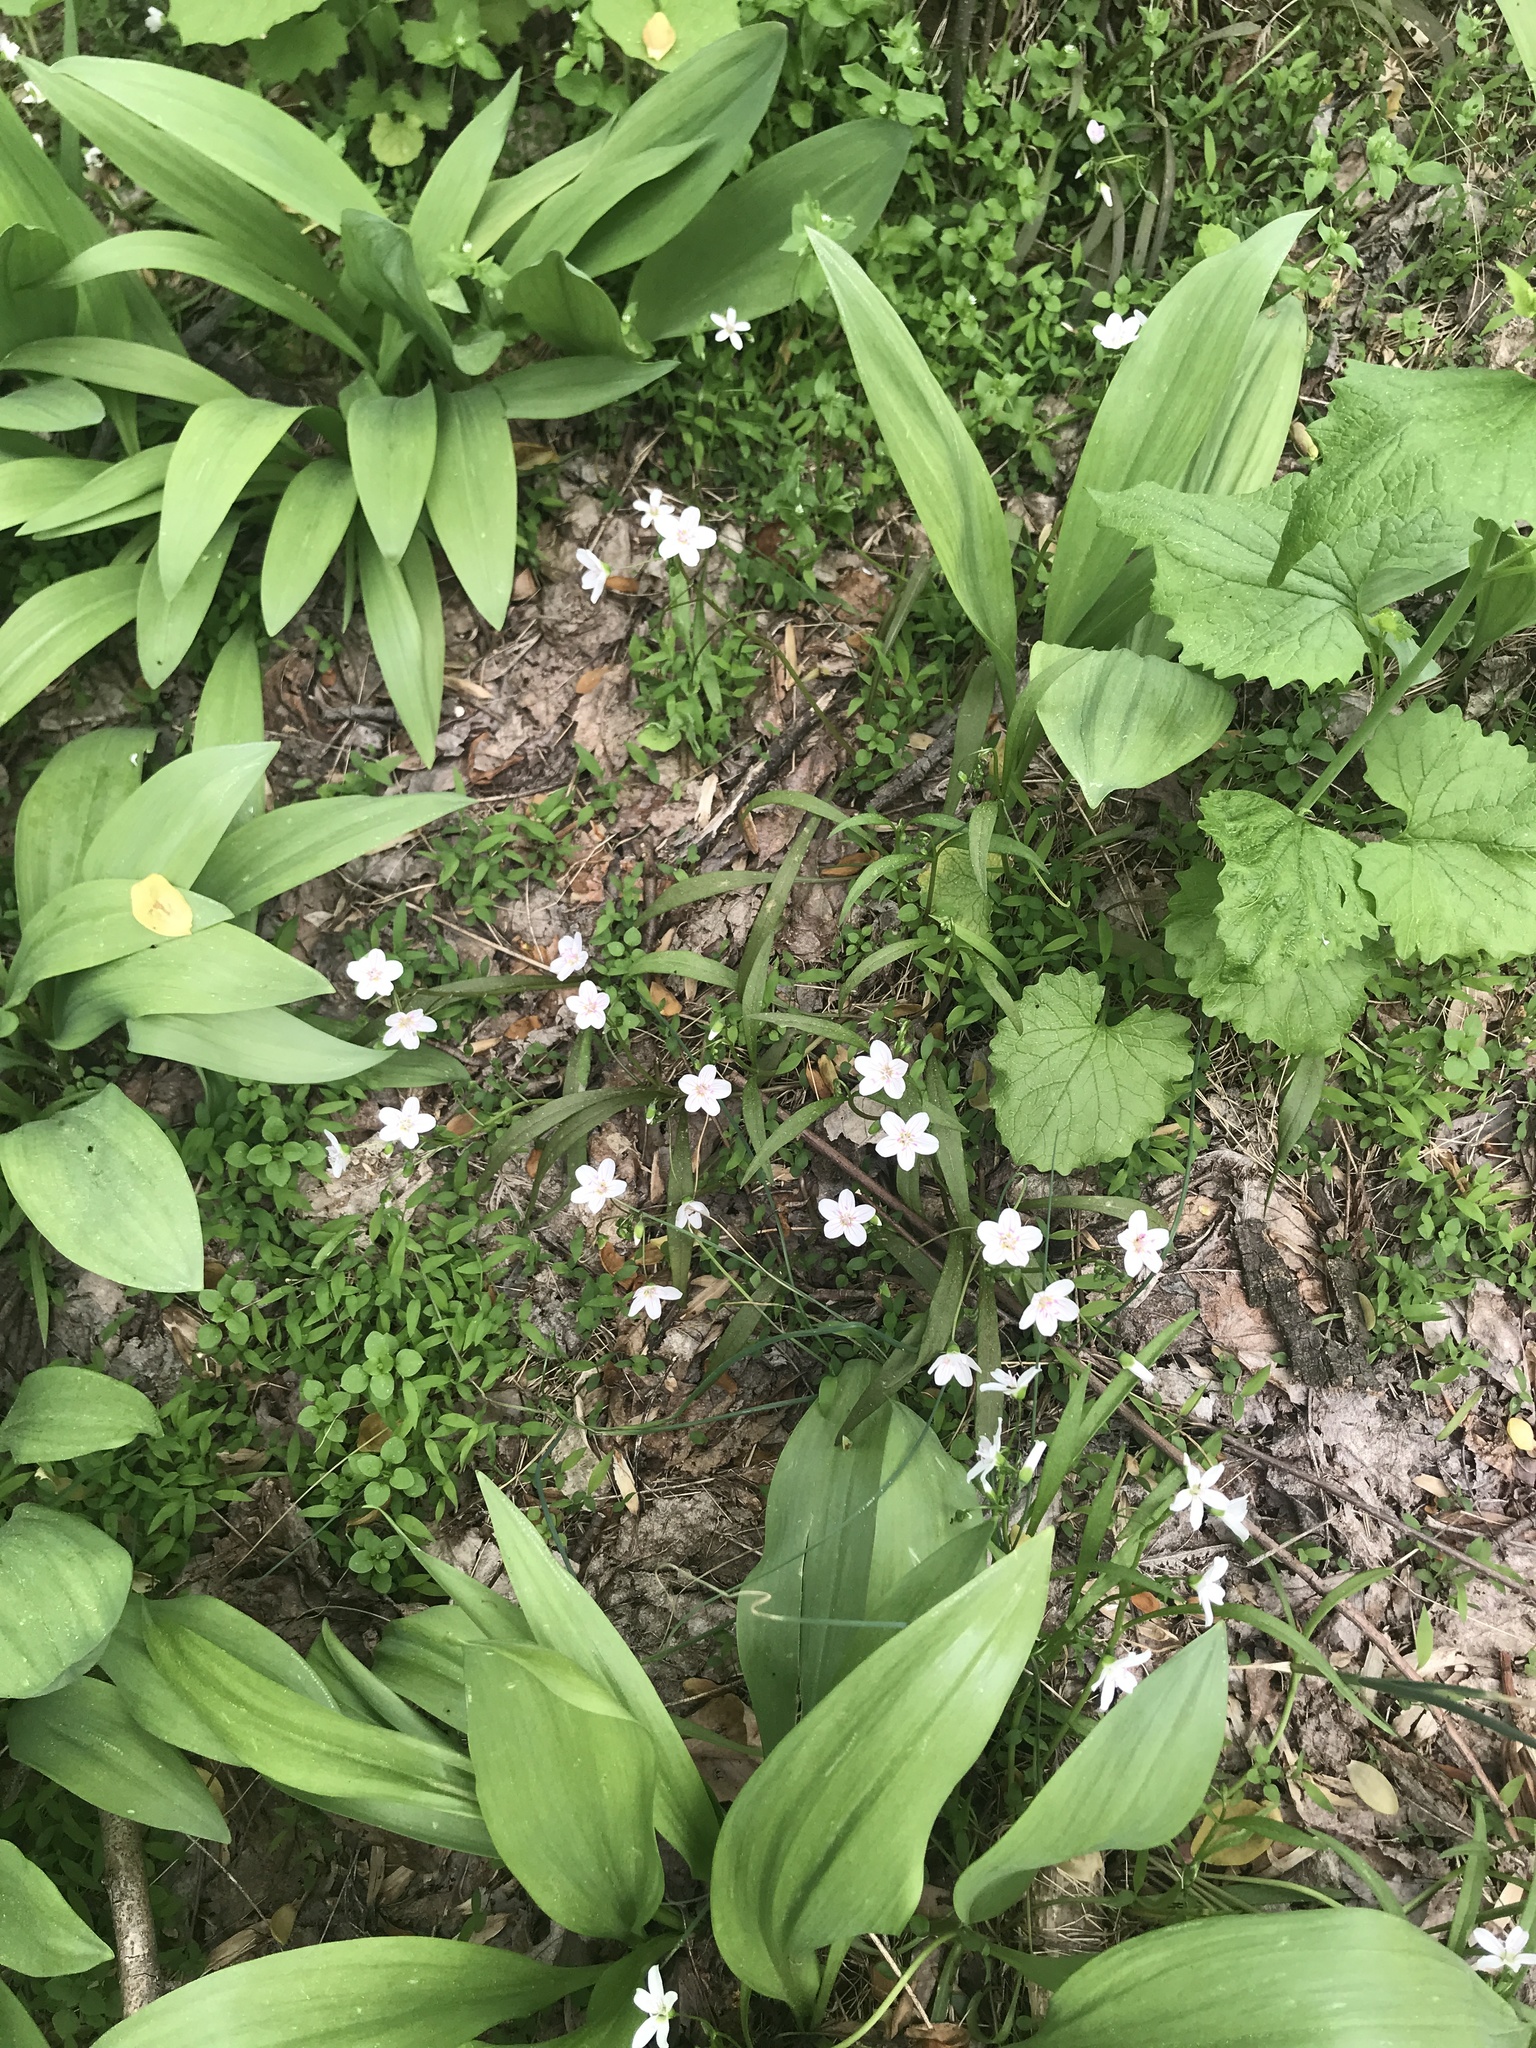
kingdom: Plantae
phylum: Tracheophyta
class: Magnoliopsida
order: Caryophyllales
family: Montiaceae
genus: Claytonia
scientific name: Claytonia virginica
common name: Virginia springbeauty
